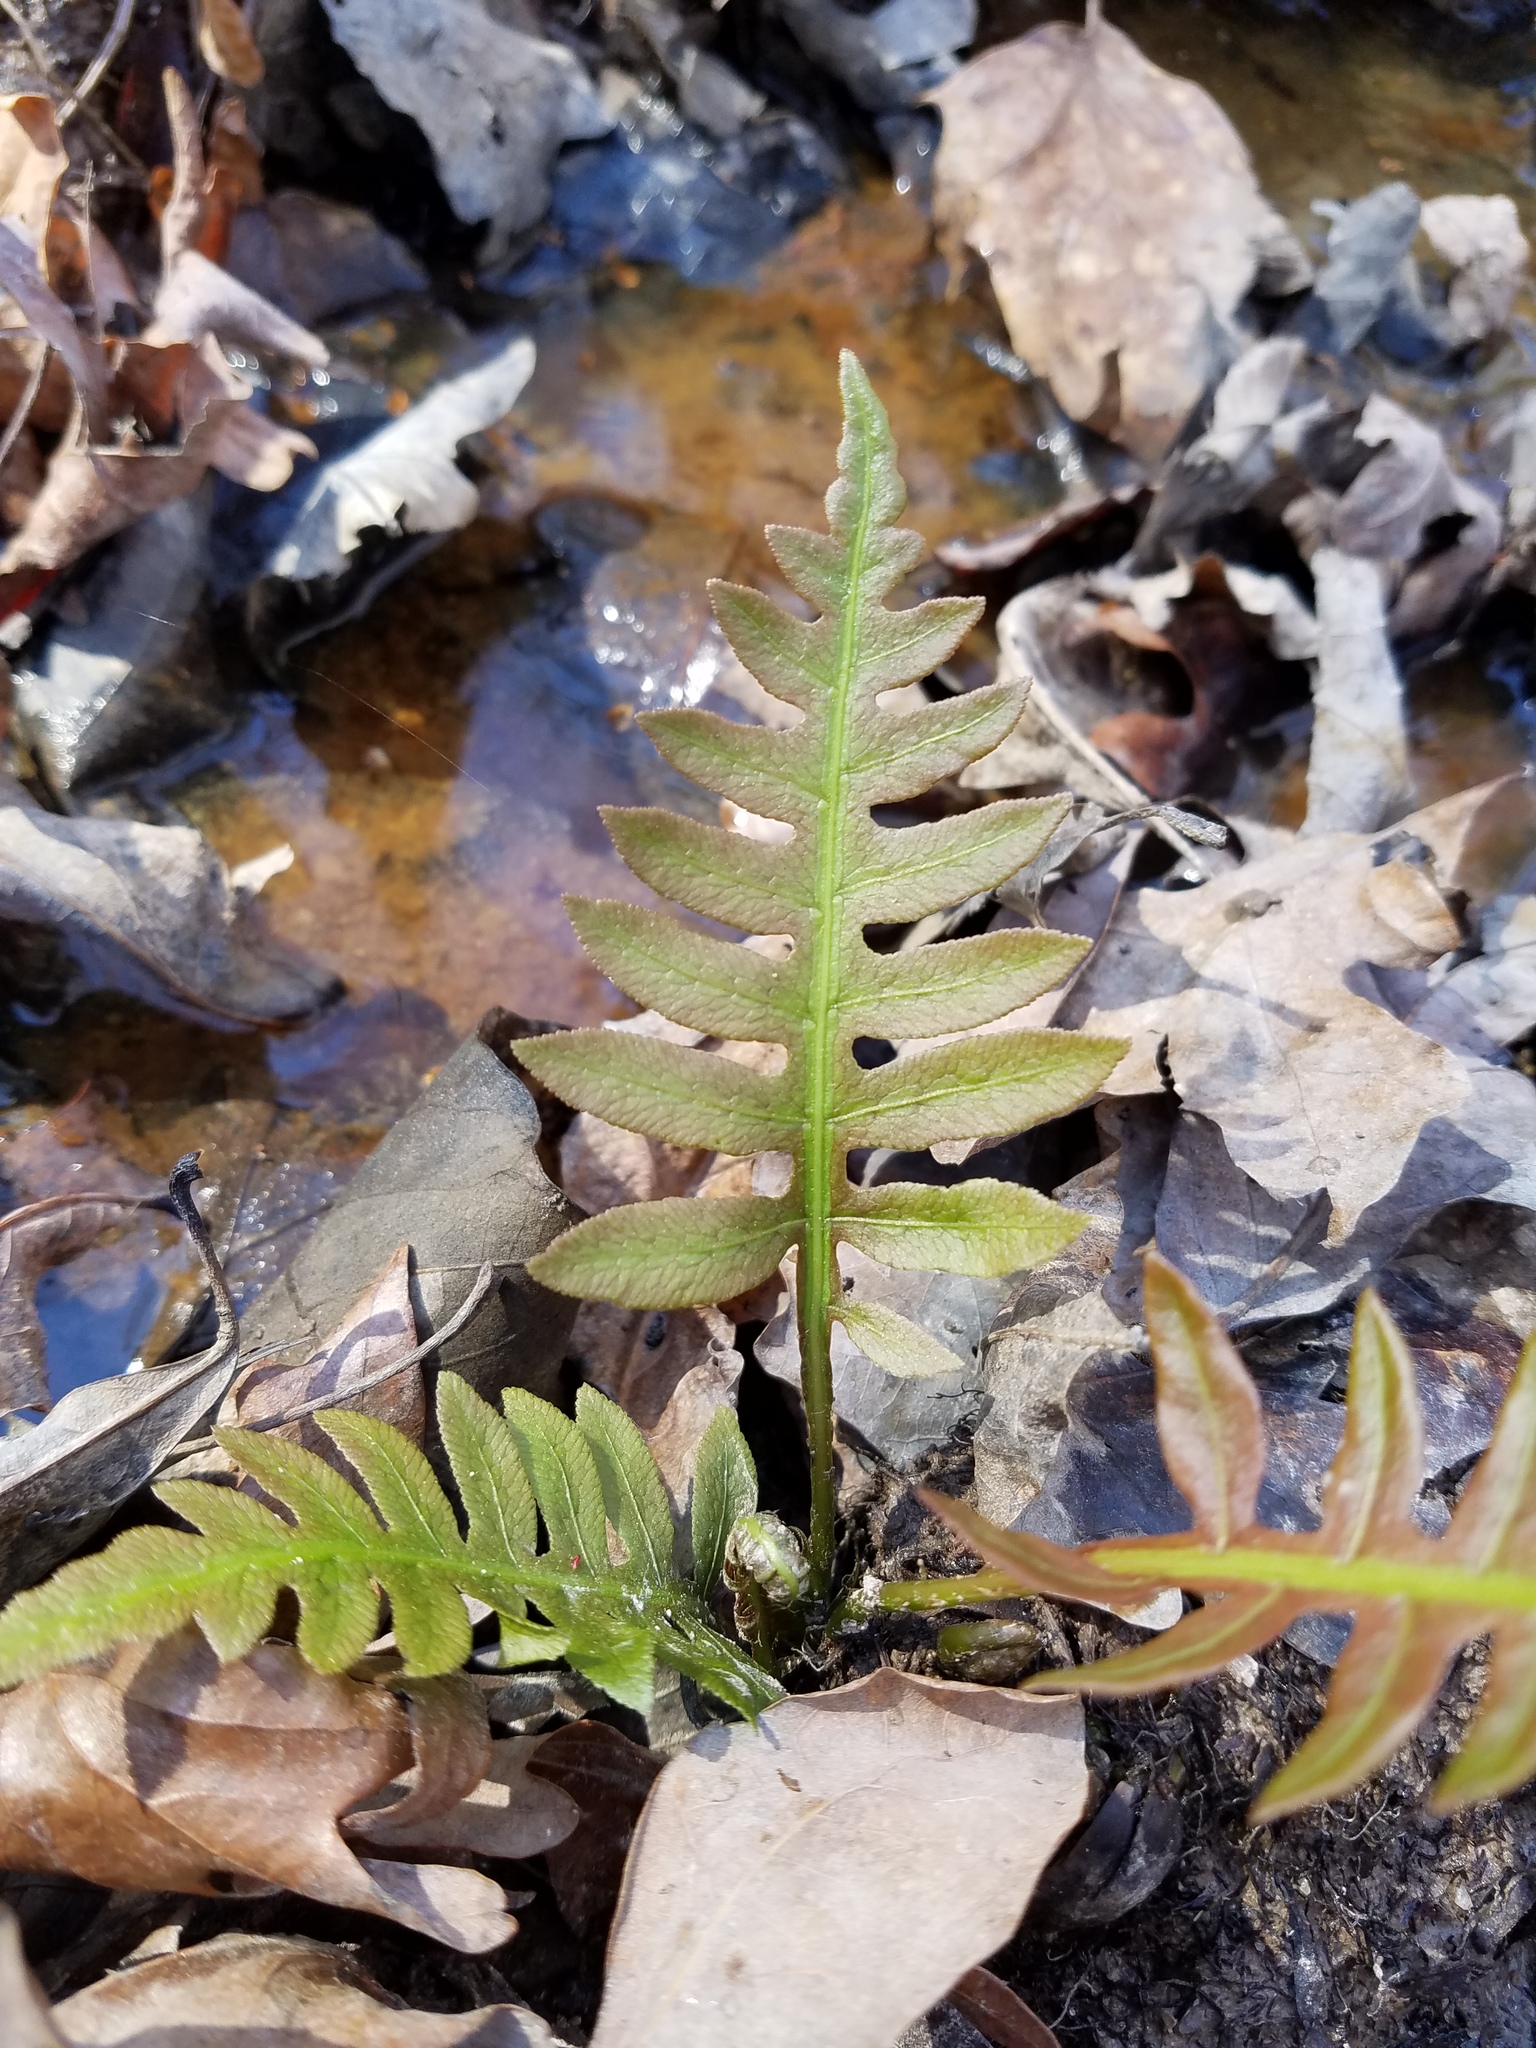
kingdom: Plantae
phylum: Tracheophyta
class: Polypodiopsida
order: Polypodiales
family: Blechnaceae
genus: Lorinseria
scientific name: Lorinseria areolata
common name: Dwarf chain fern
